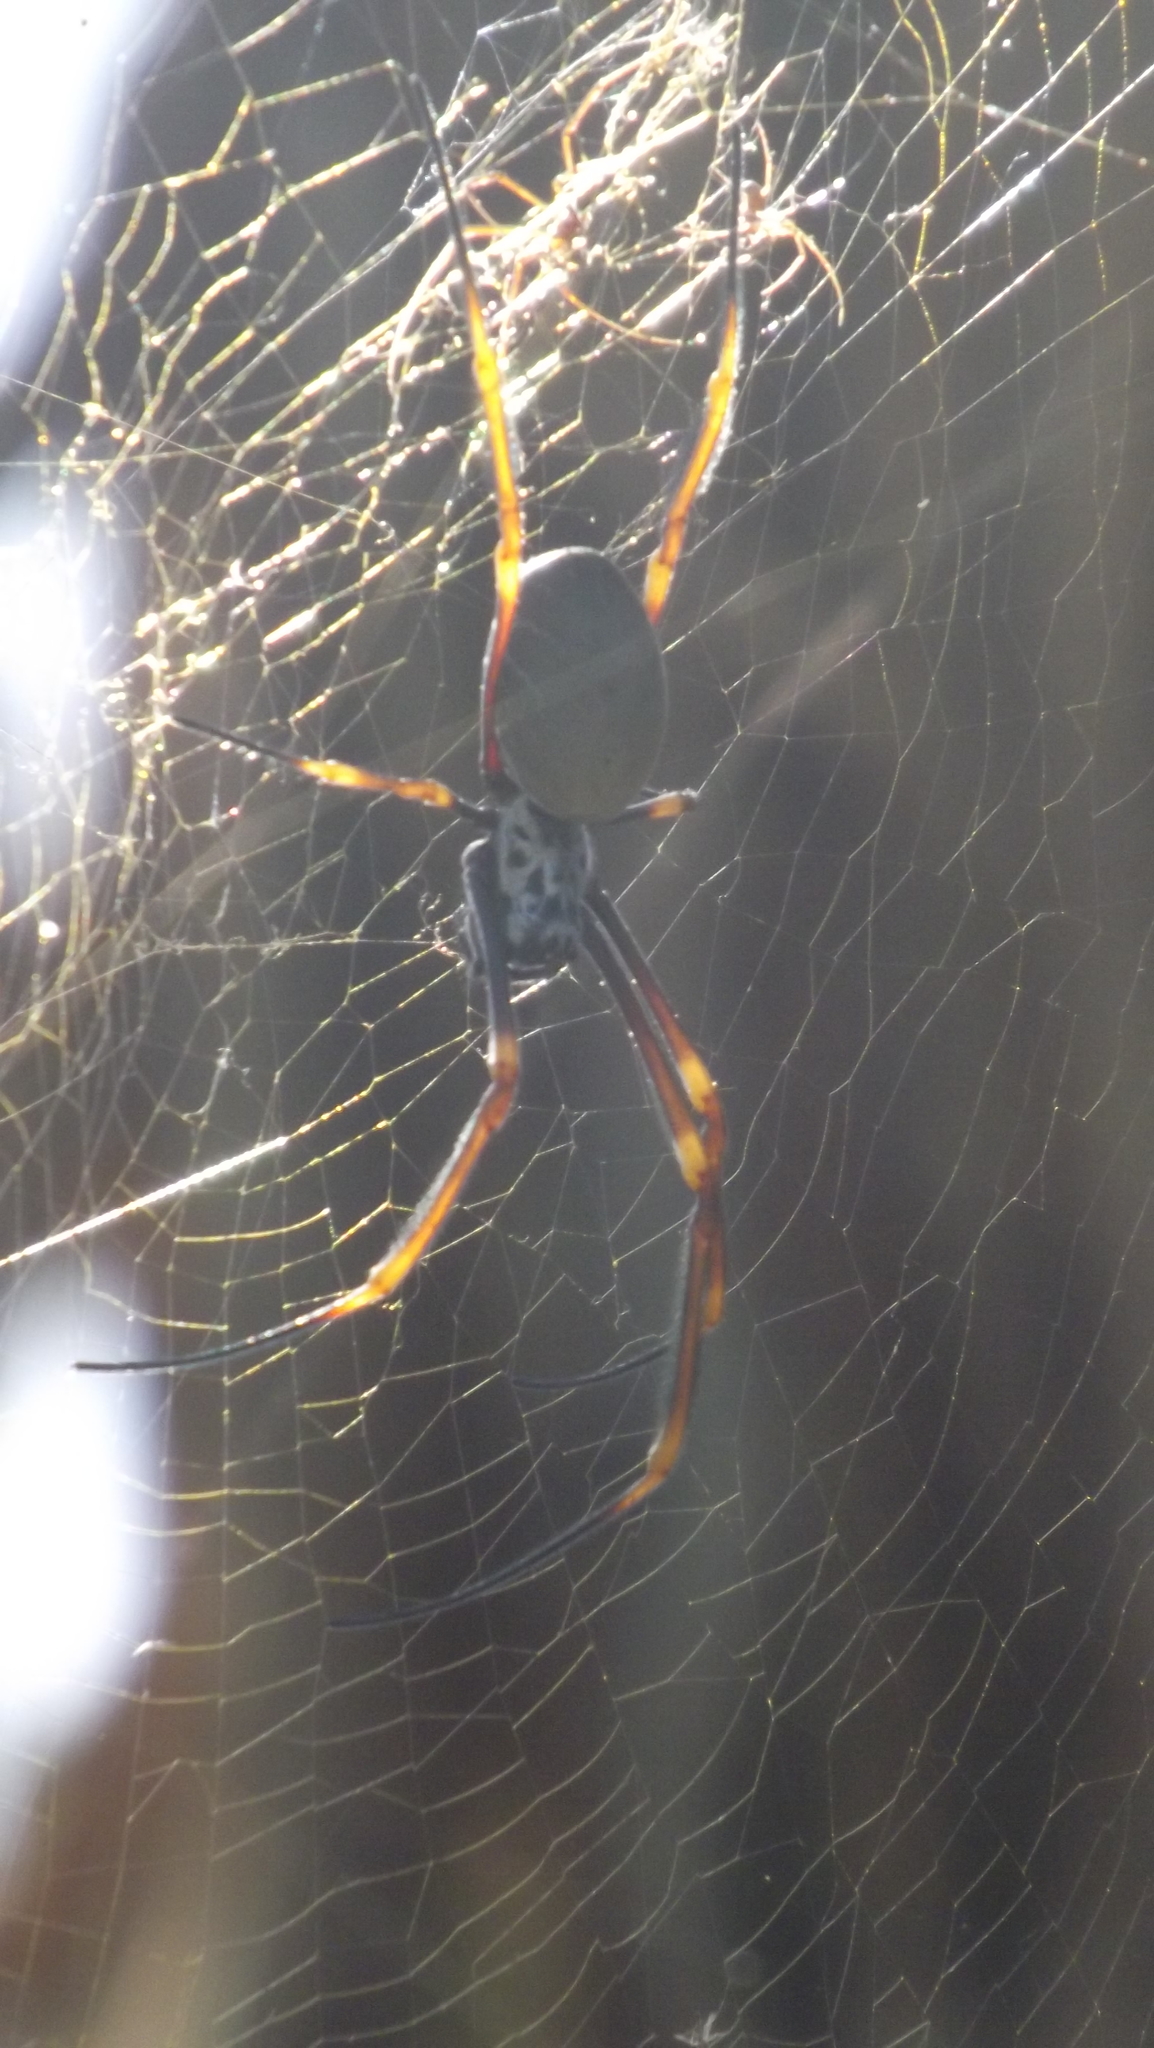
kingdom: Animalia
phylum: Arthropoda
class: Arachnida
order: Araneae
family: Araneidae
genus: Trichonephila
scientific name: Trichonephila plumipes
